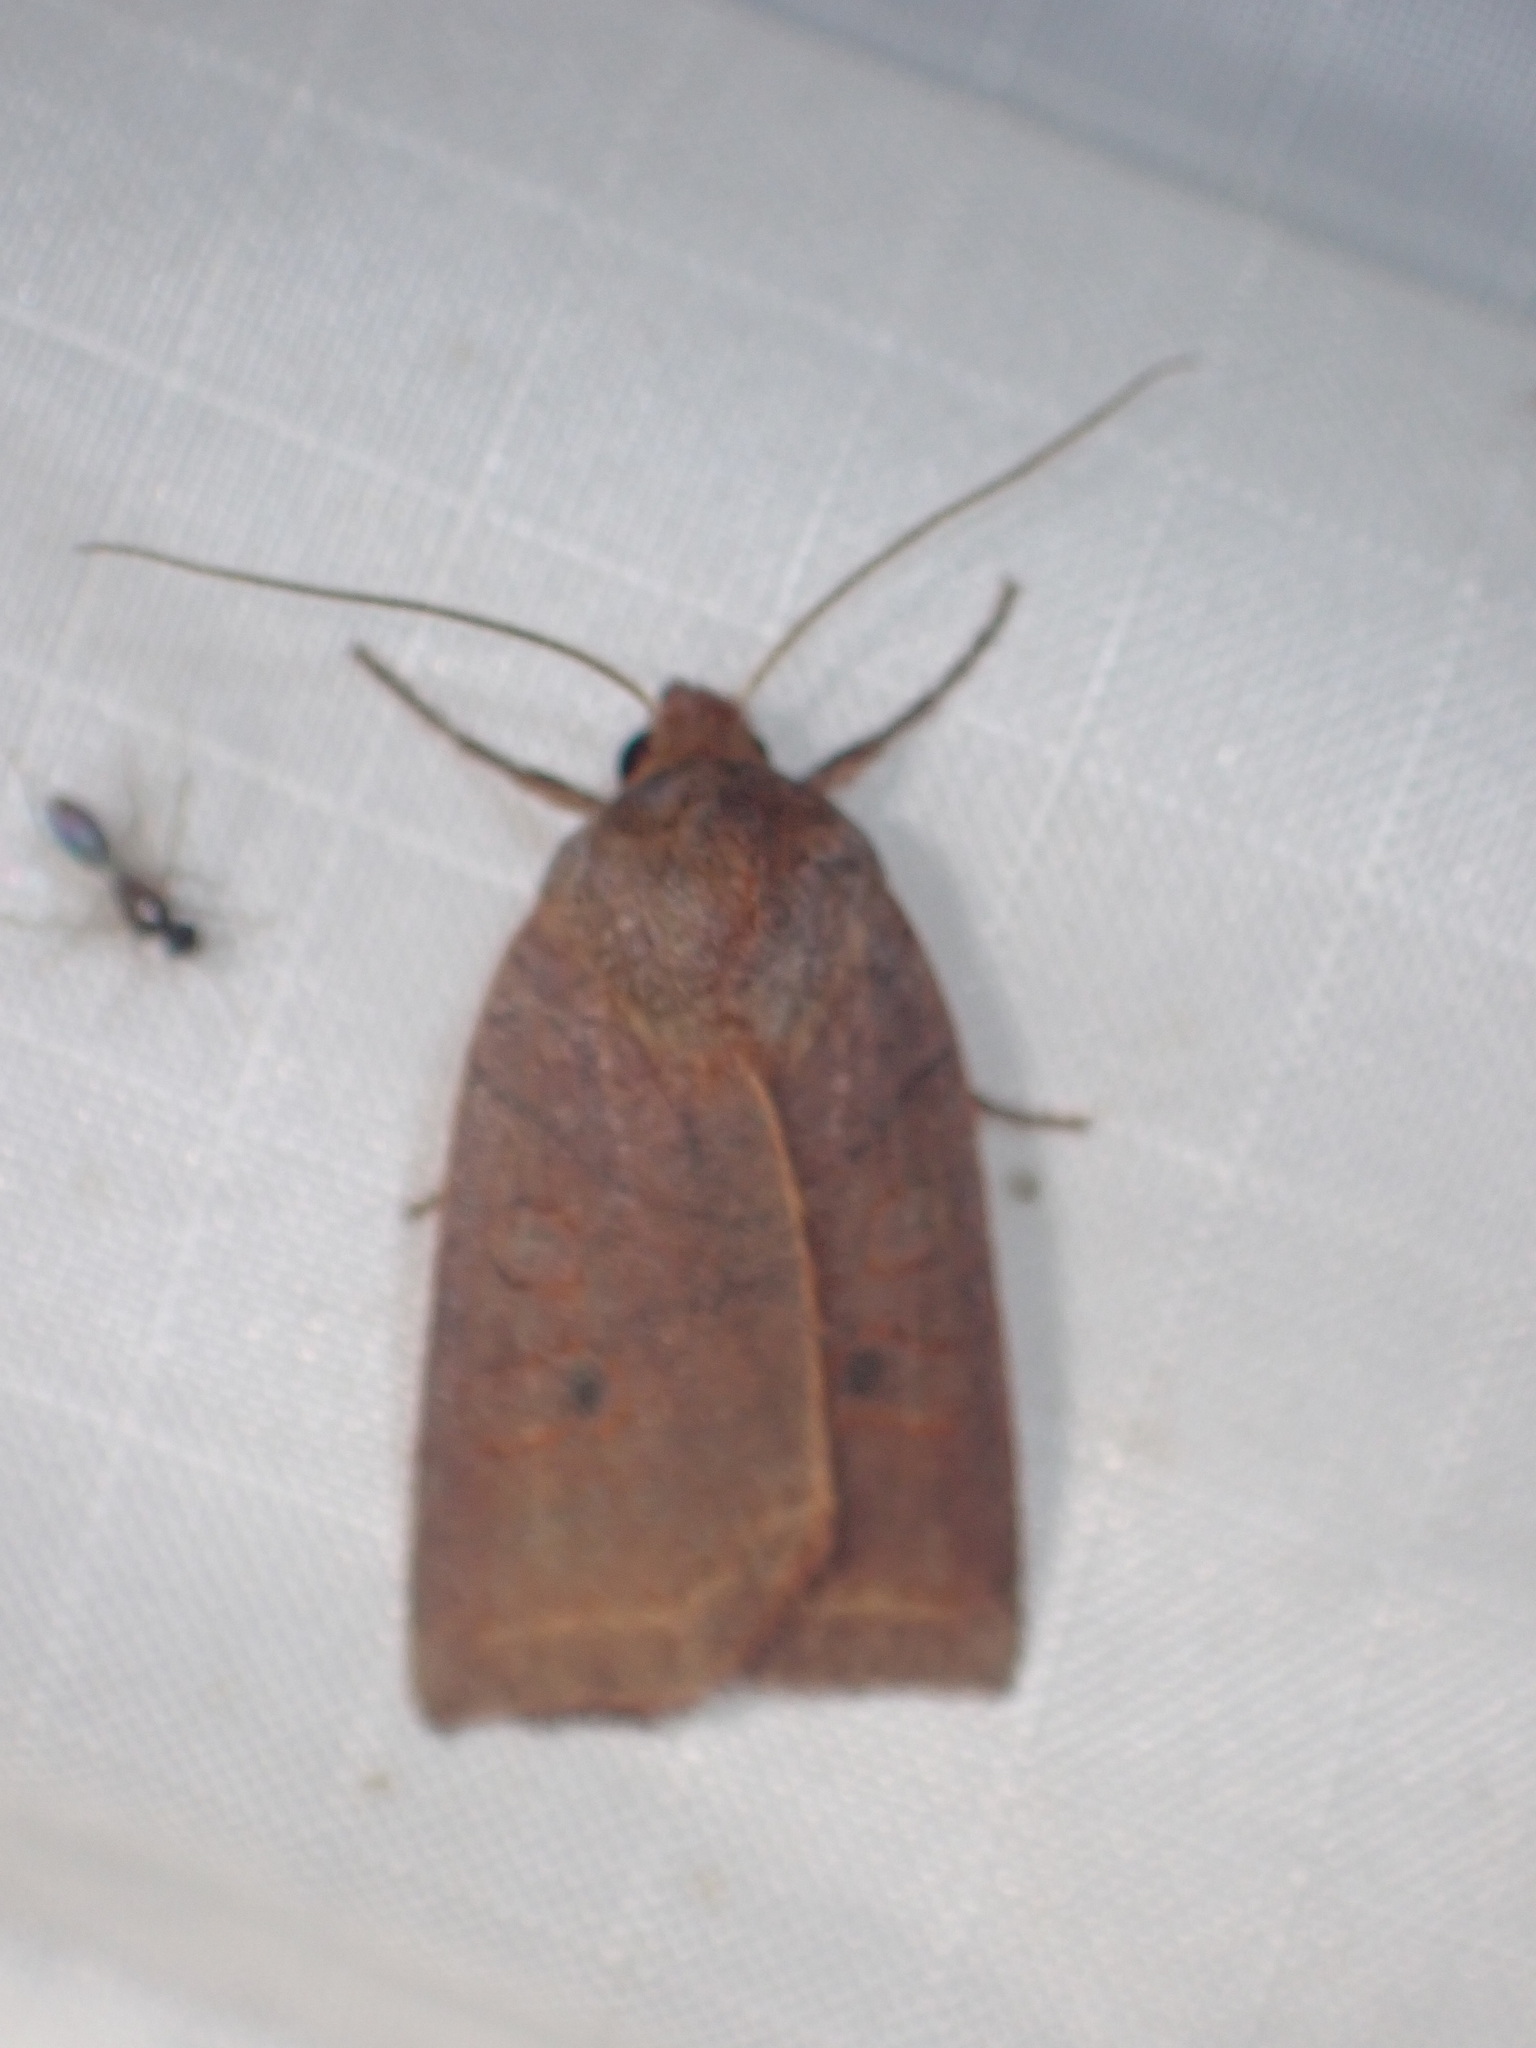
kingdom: Animalia
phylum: Arthropoda
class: Insecta
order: Lepidoptera
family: Noctuidae
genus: Epiglaea
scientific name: Epiglaea apiata
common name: Pointed sallow
